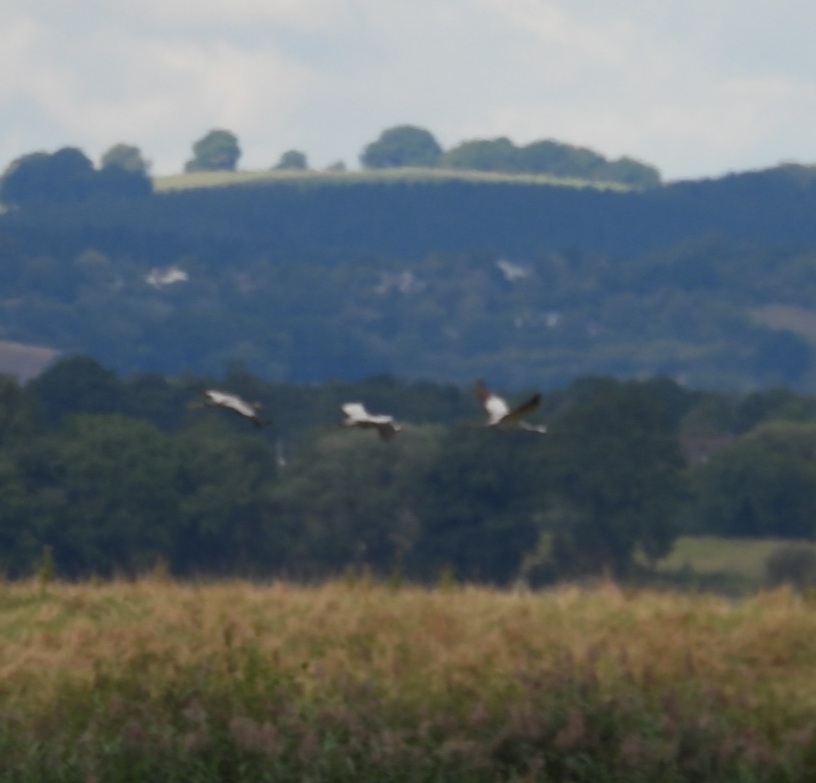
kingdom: Animalia
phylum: Chordata
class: Aves
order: Gruiformes
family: Gruidae
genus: Grus
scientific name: Grus grus
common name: Common crane
